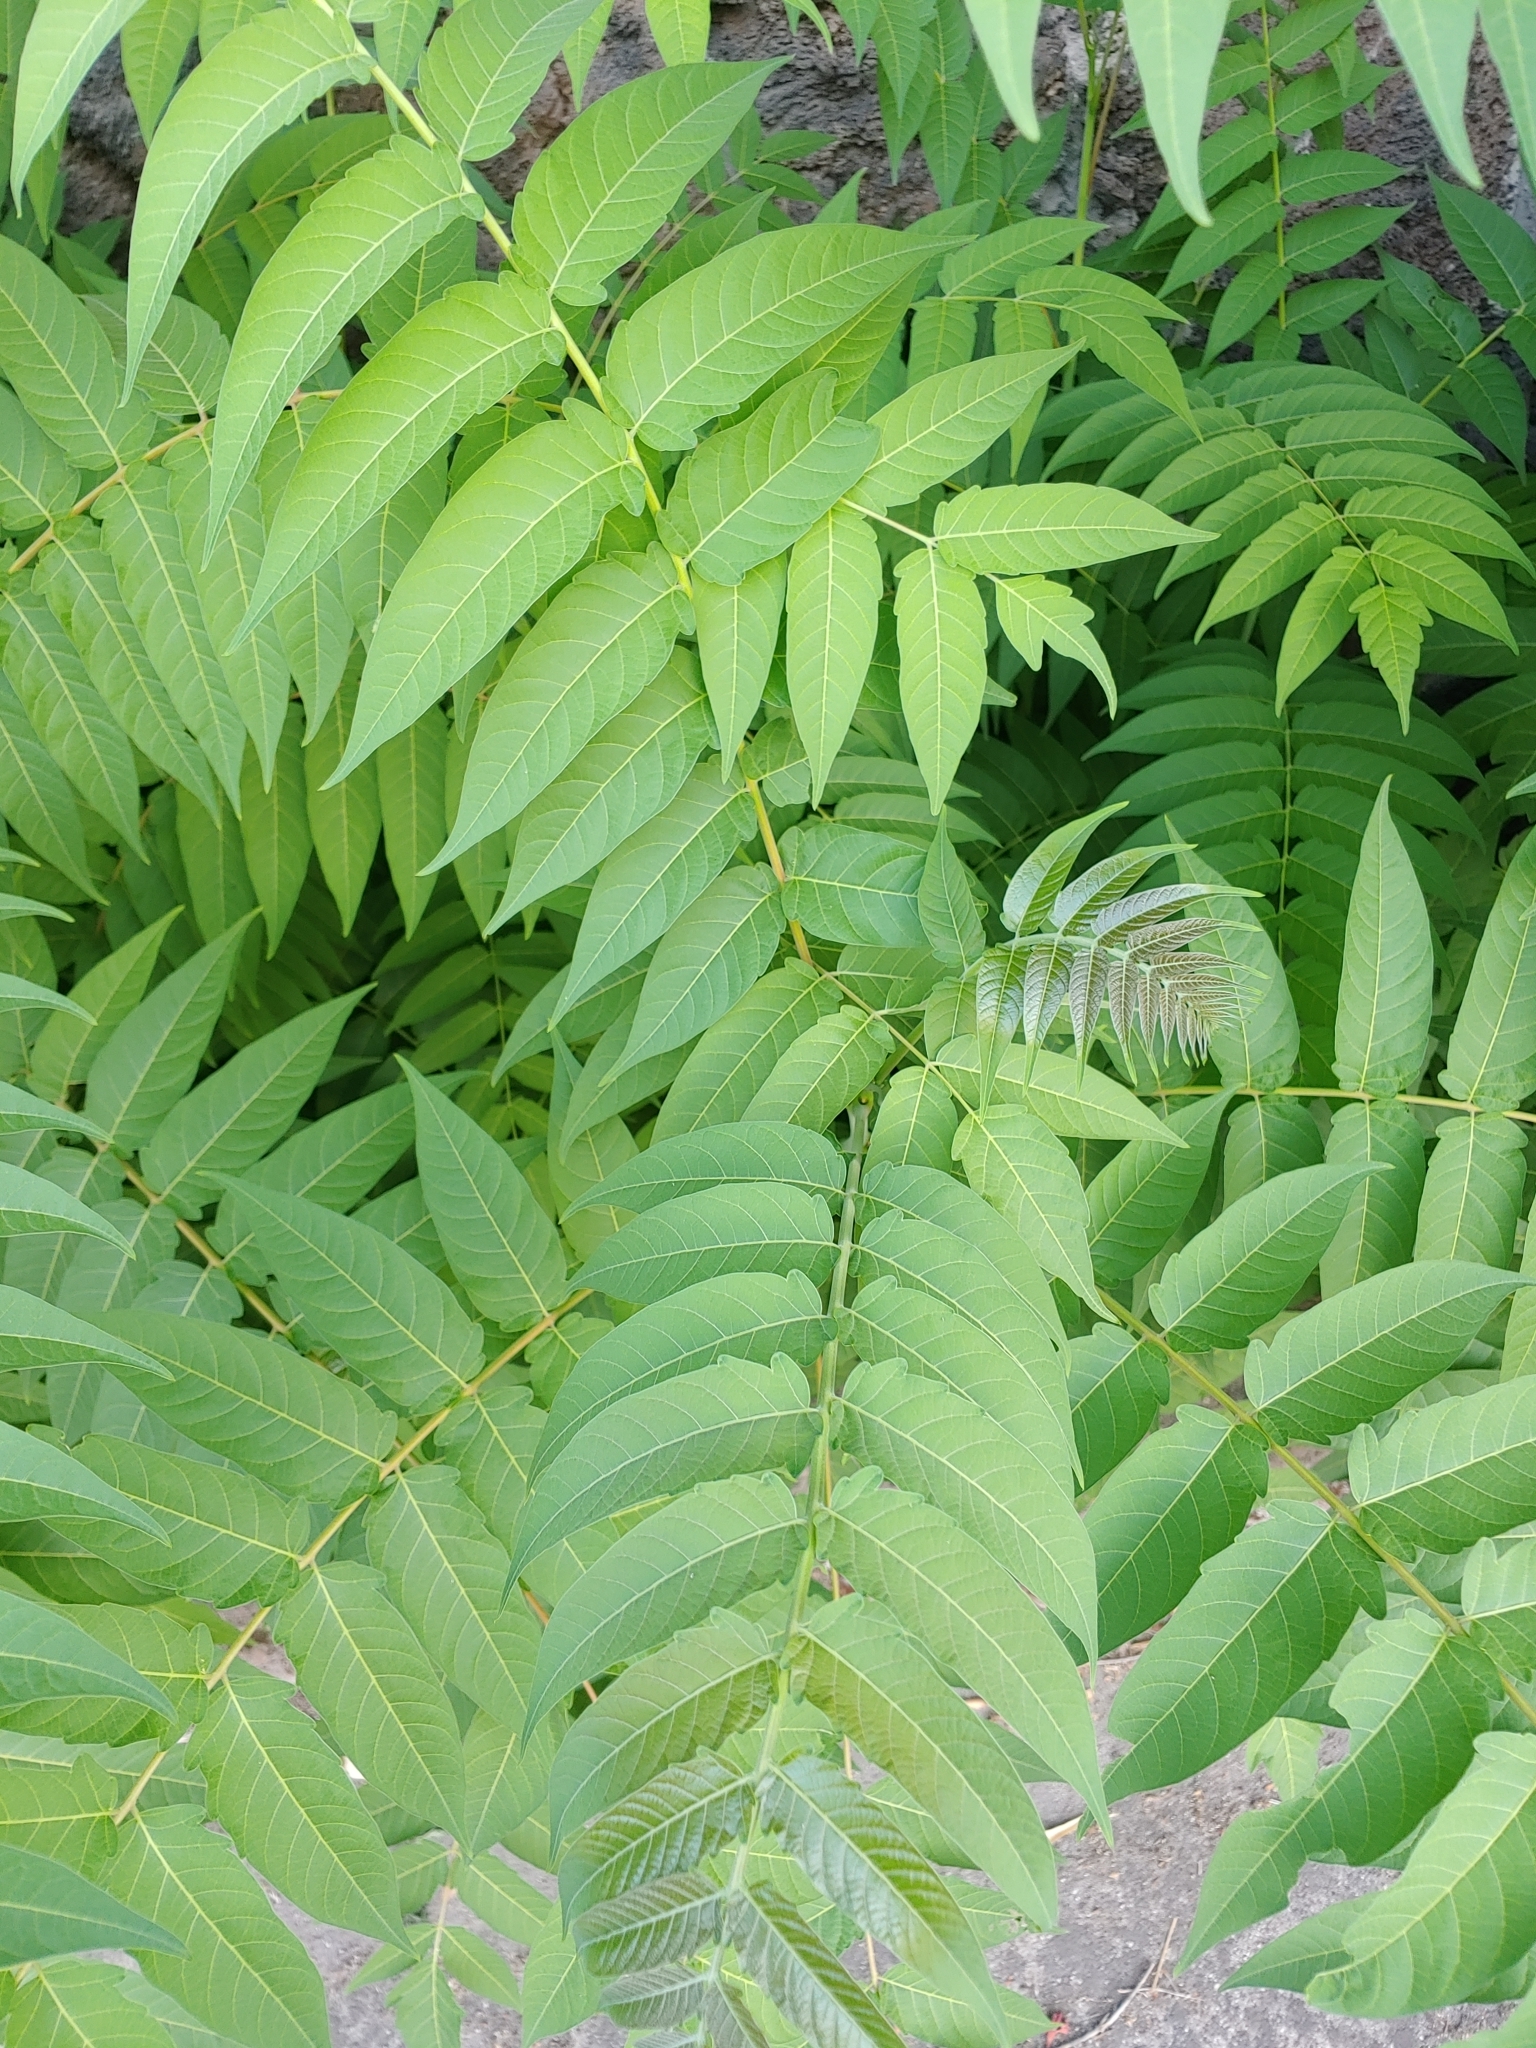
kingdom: Plantae
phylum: Tracheophyta
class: Magnoliopsida
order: Sapindales
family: Simaroubaceae
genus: Ailanthus
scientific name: Ailanthus altissima
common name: Tree-of-heaven
